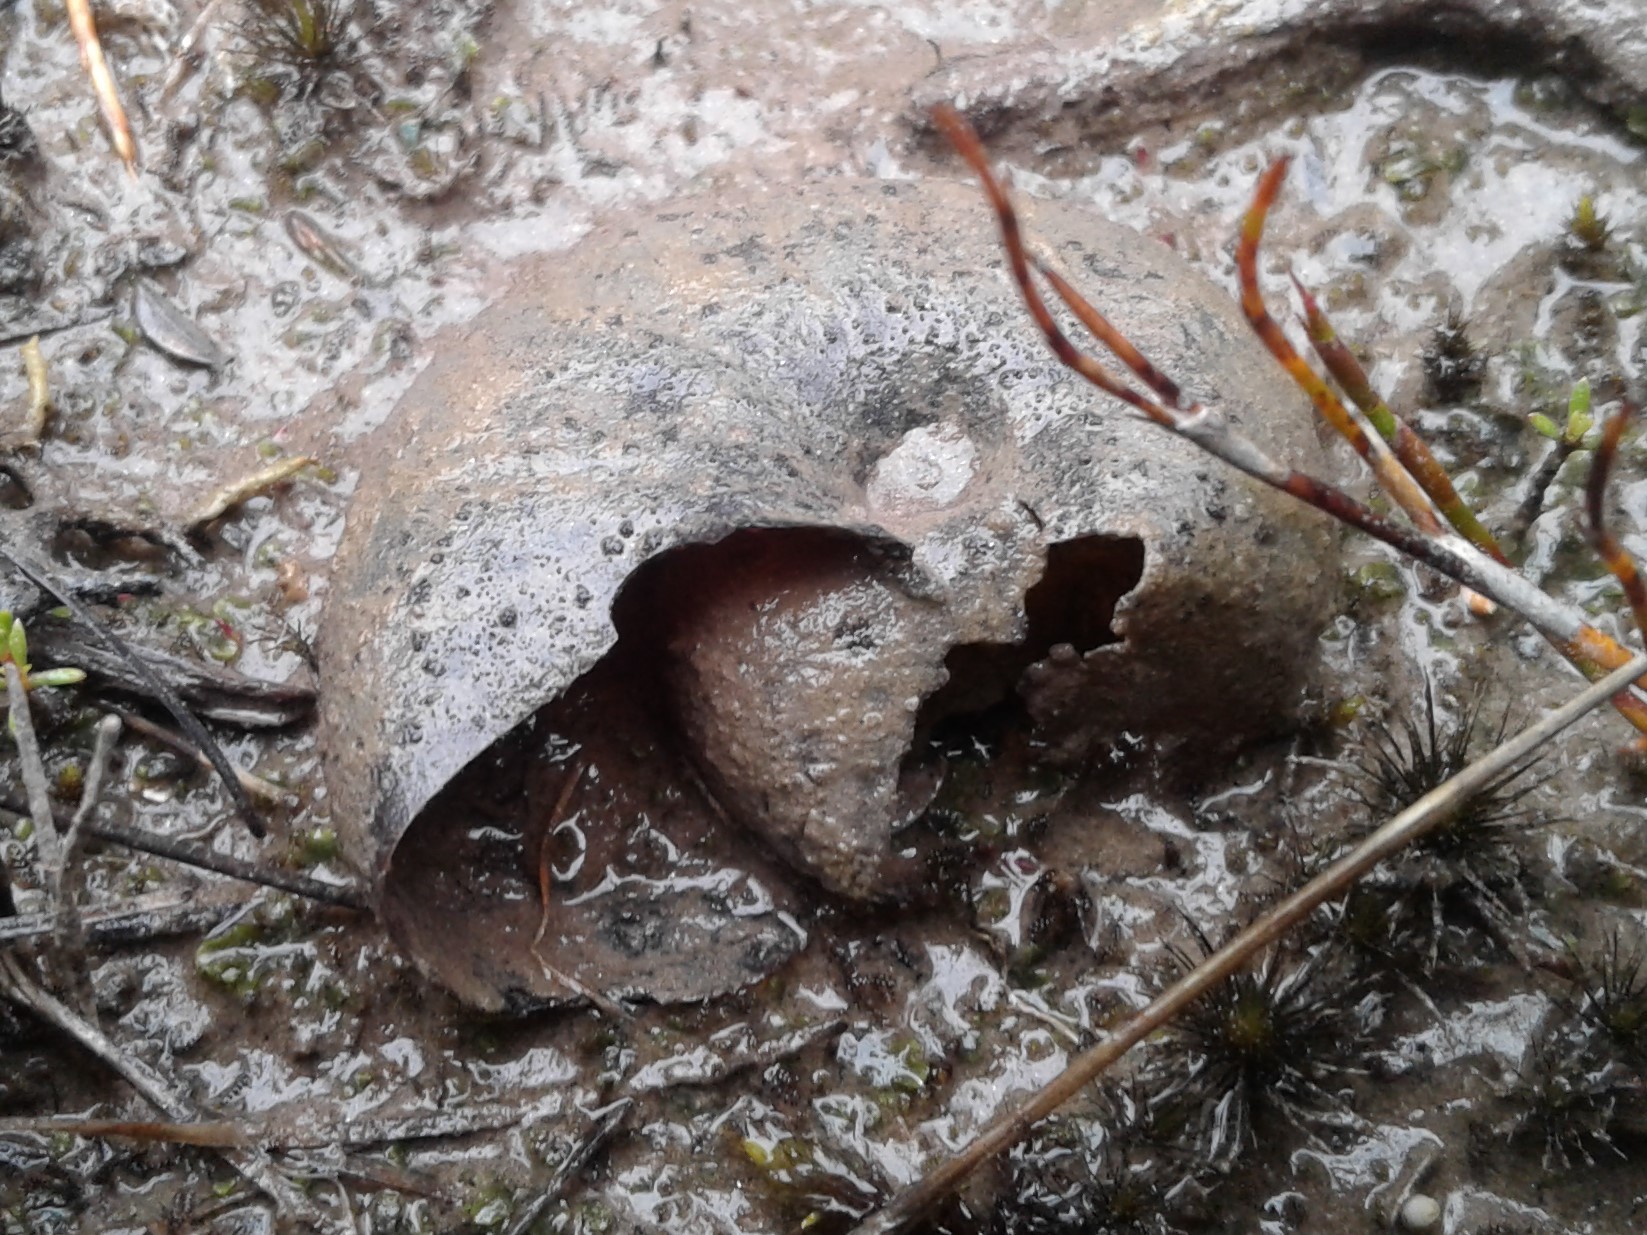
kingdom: Animalia
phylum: Mollusca
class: Gastropoda
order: Stylommatophora
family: Rhytididae
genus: Powelliphanta
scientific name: Powelliphanta patrickensis
